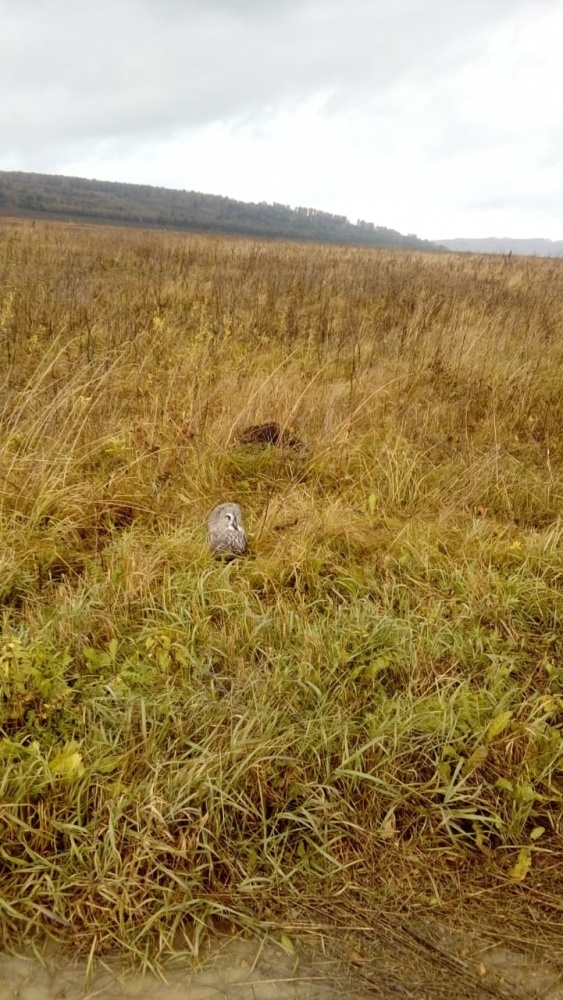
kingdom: Animalia
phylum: Chordata
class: Aves
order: Strigiformes
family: Strigidae
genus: Strix
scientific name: Strix nebulosa
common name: Great grey owl
